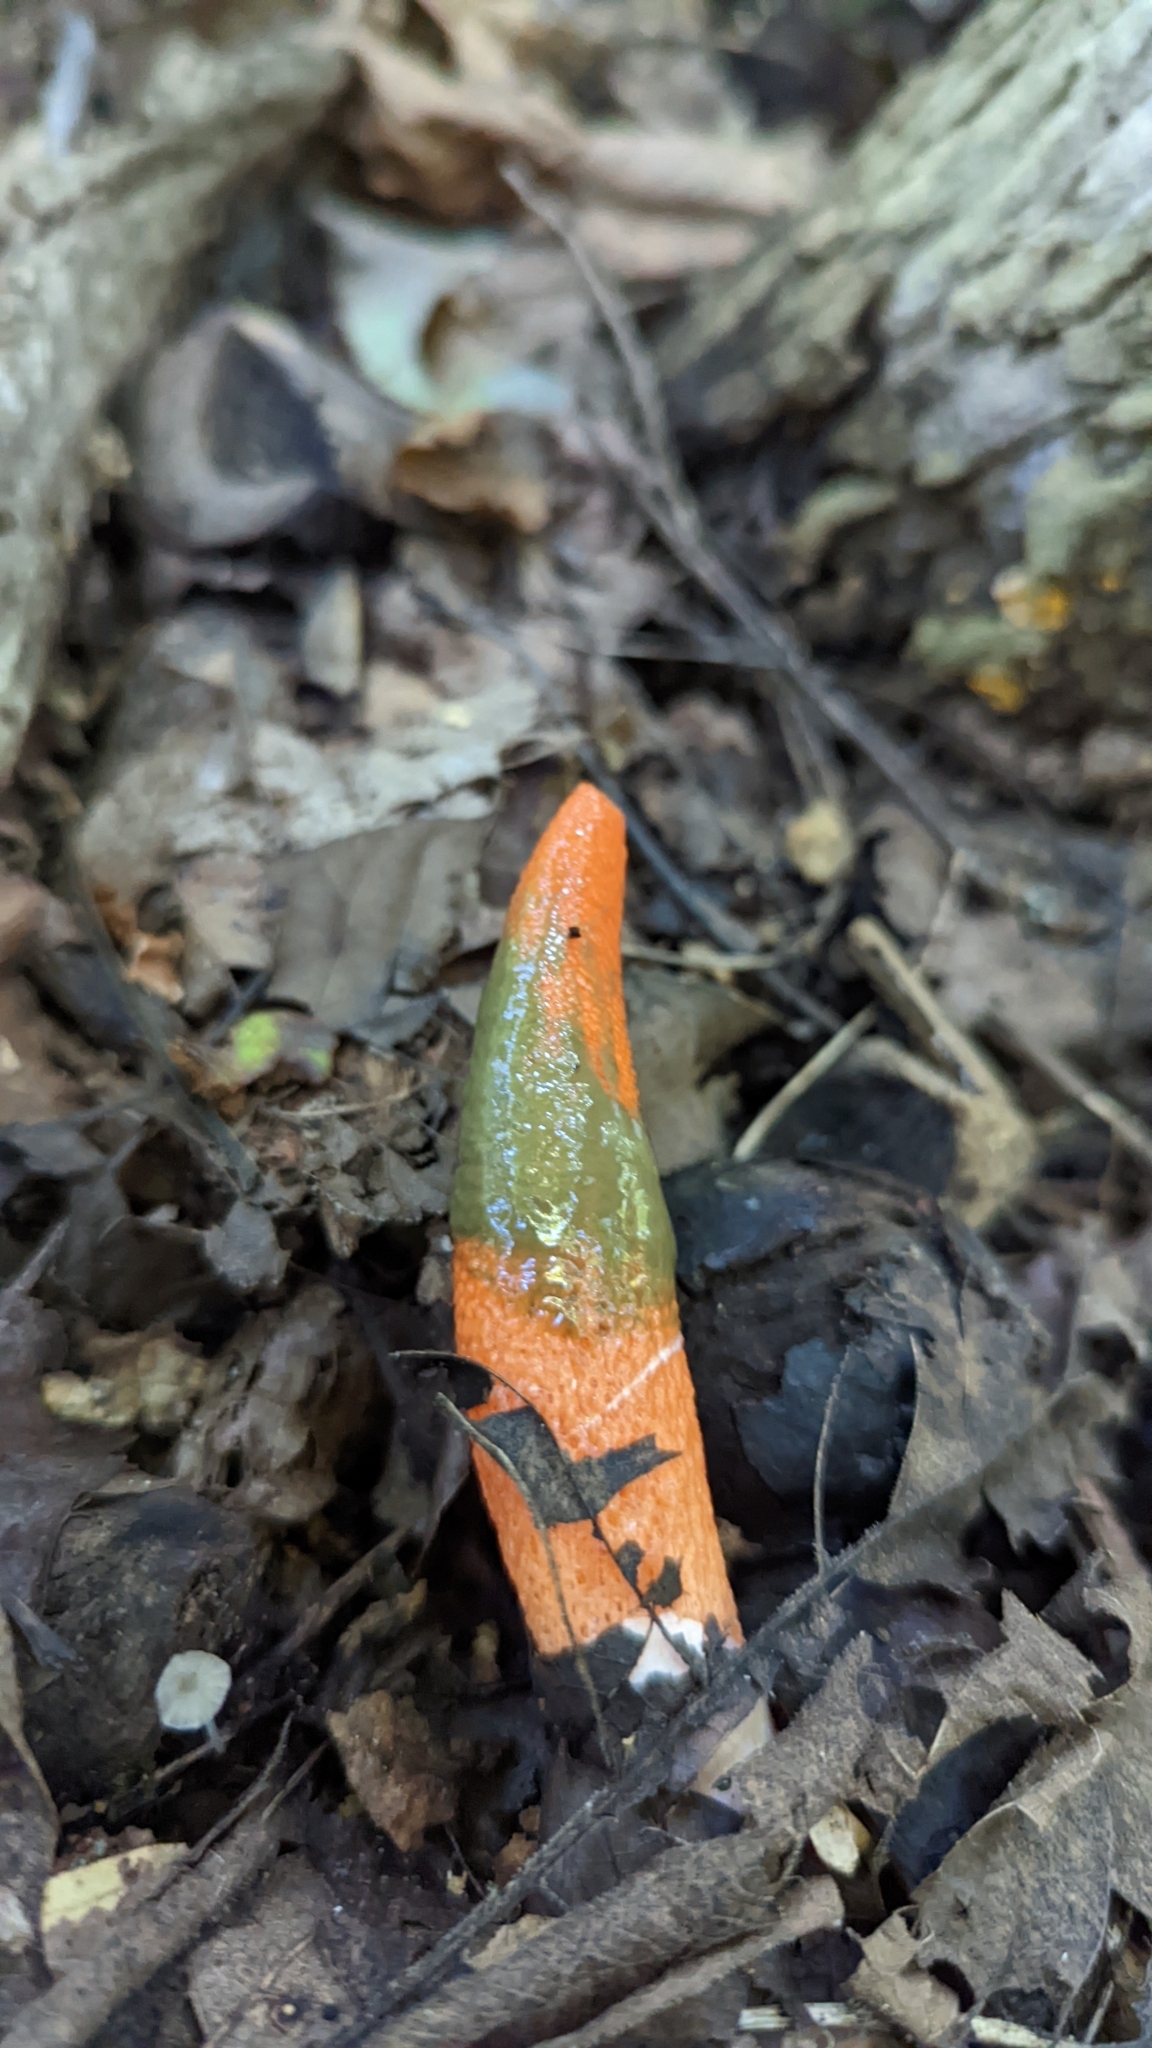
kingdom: Fungi
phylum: Basidiomycota
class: Agaricomycetes
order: Phallales
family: Phallaceae
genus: Mutinus
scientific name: Mutinus elegans
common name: Devil's dipstick
